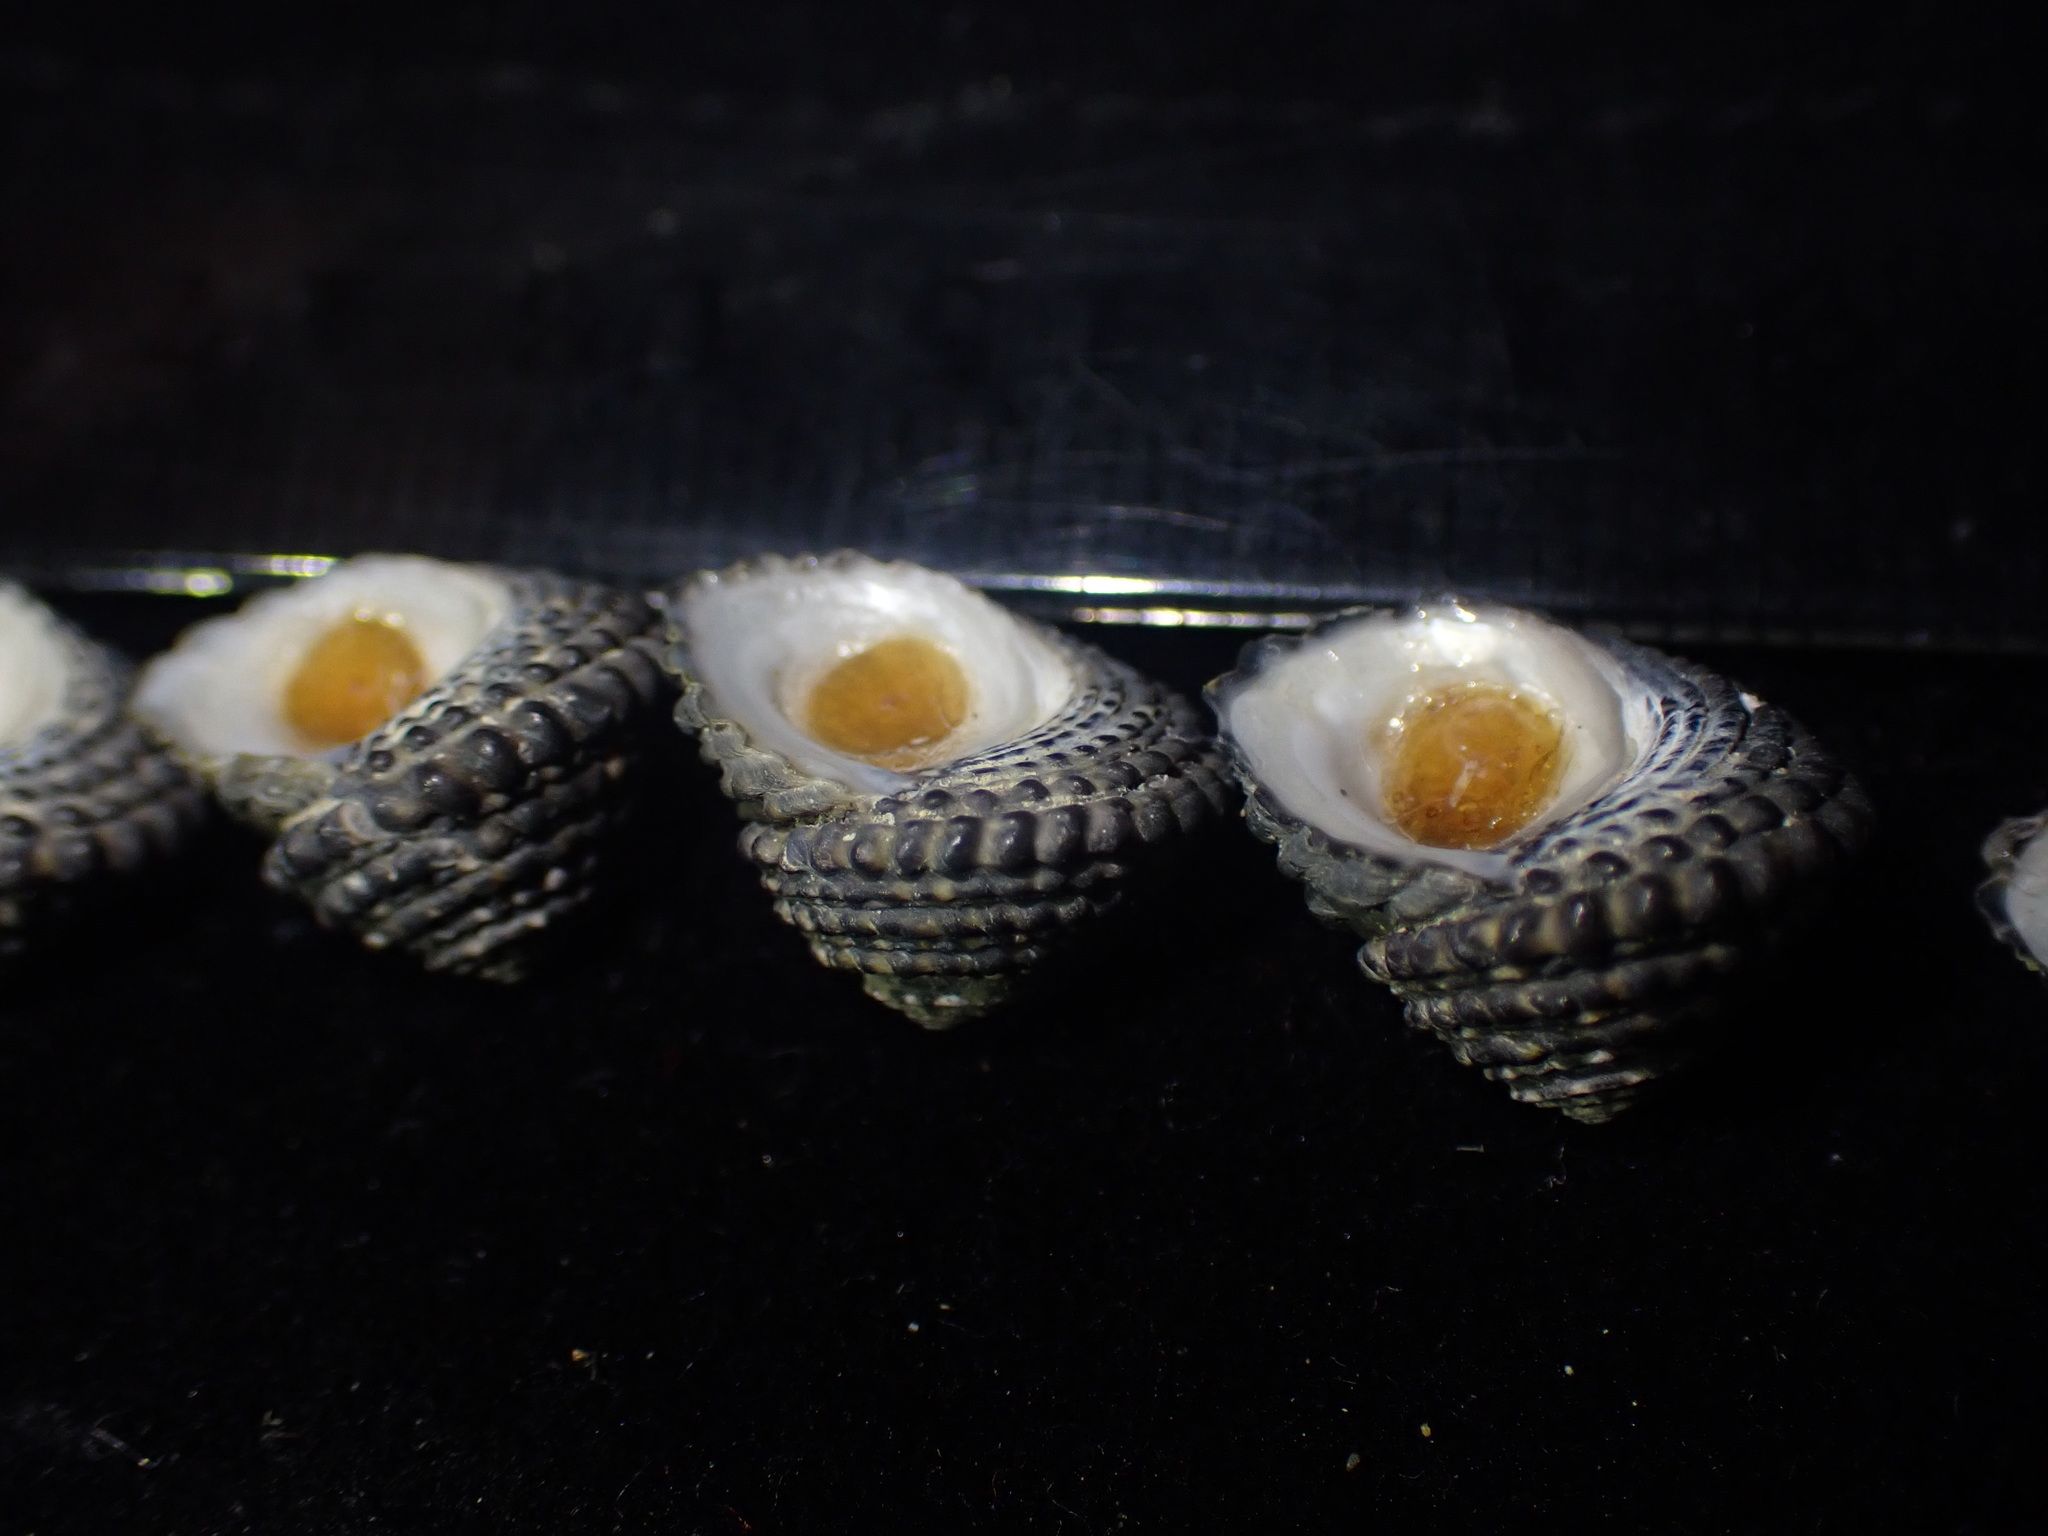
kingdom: Animalia
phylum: Mollusca
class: Gastropoda
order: Trochida
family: Trochidae
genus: Diloma
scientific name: Diloma bicanaliculatum
